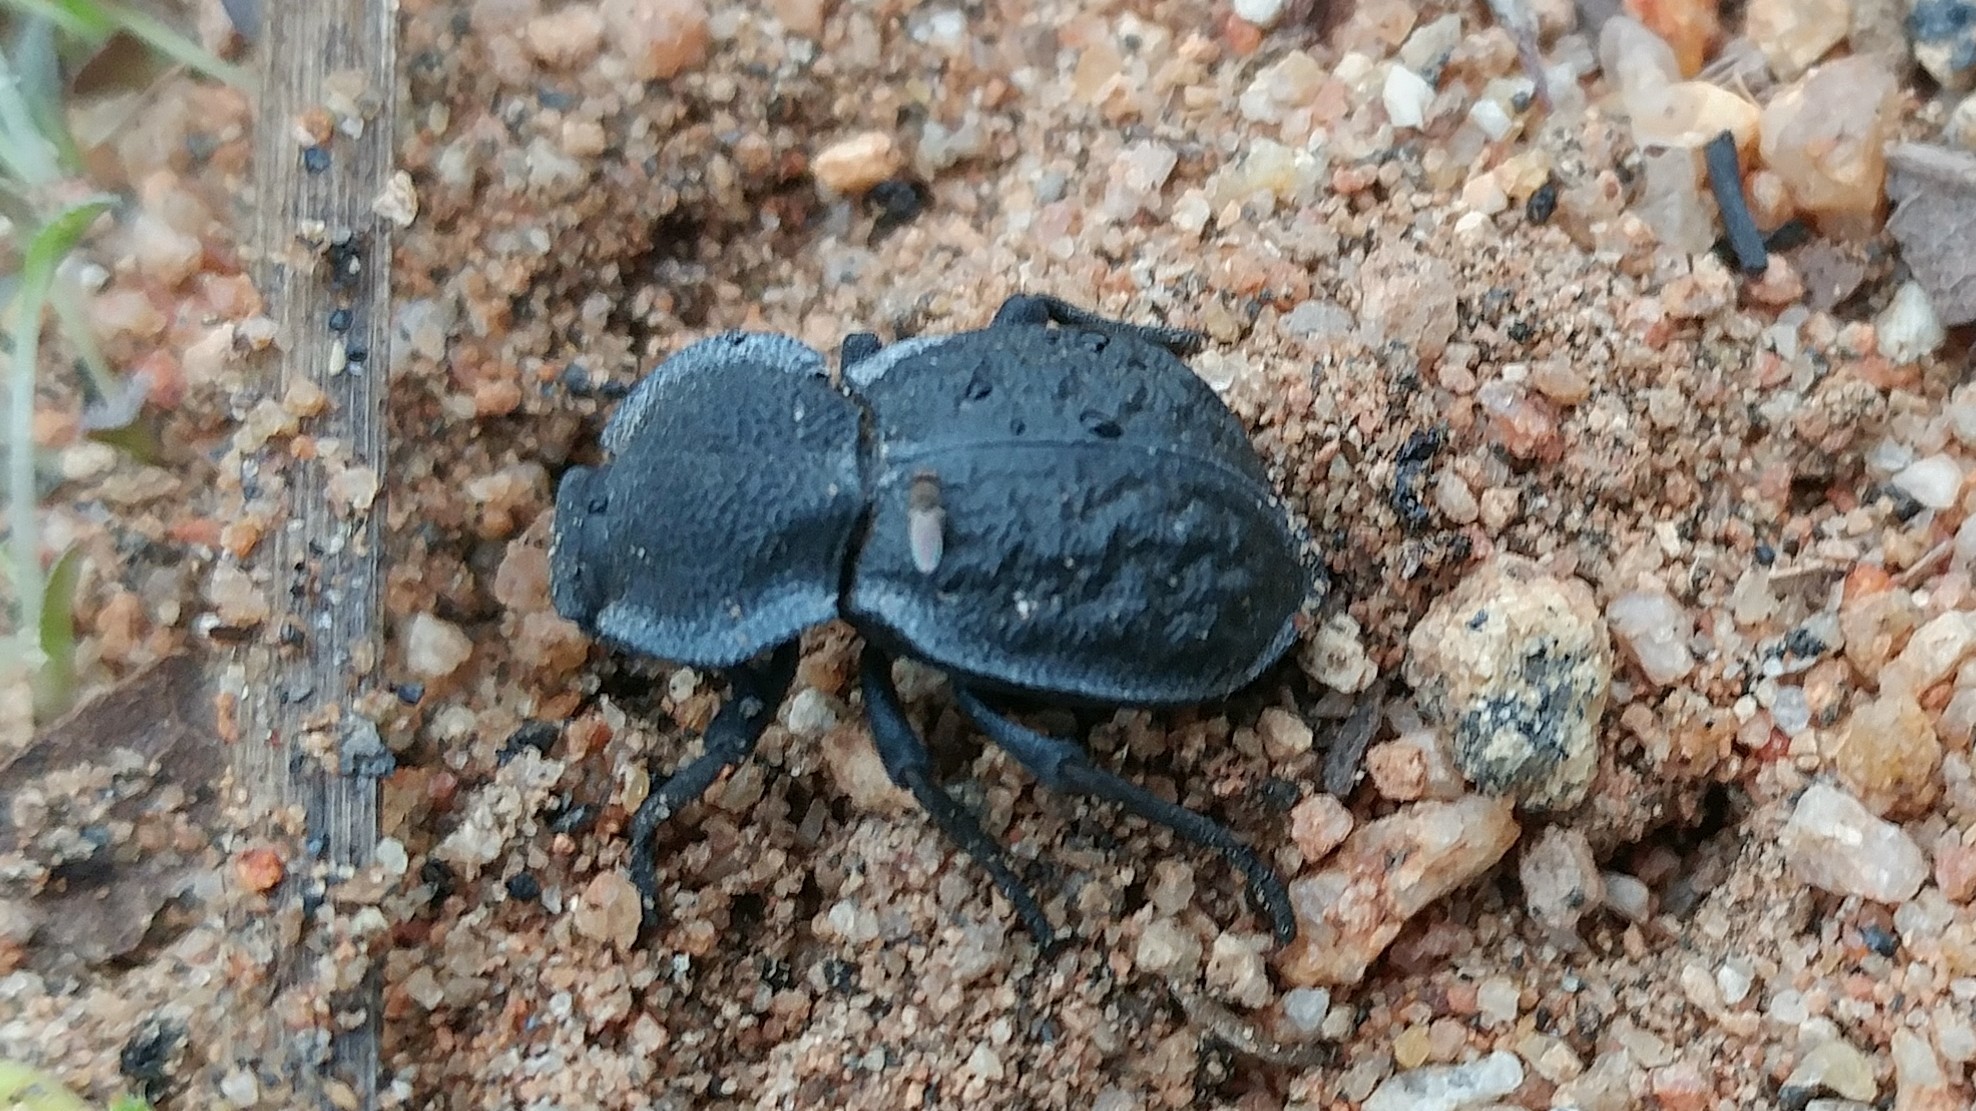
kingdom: Animalia
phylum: Arthropoda
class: Insecta
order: Coleoptera
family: Tenebrionidae
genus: Microschatia
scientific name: Microschatia inaequalis
